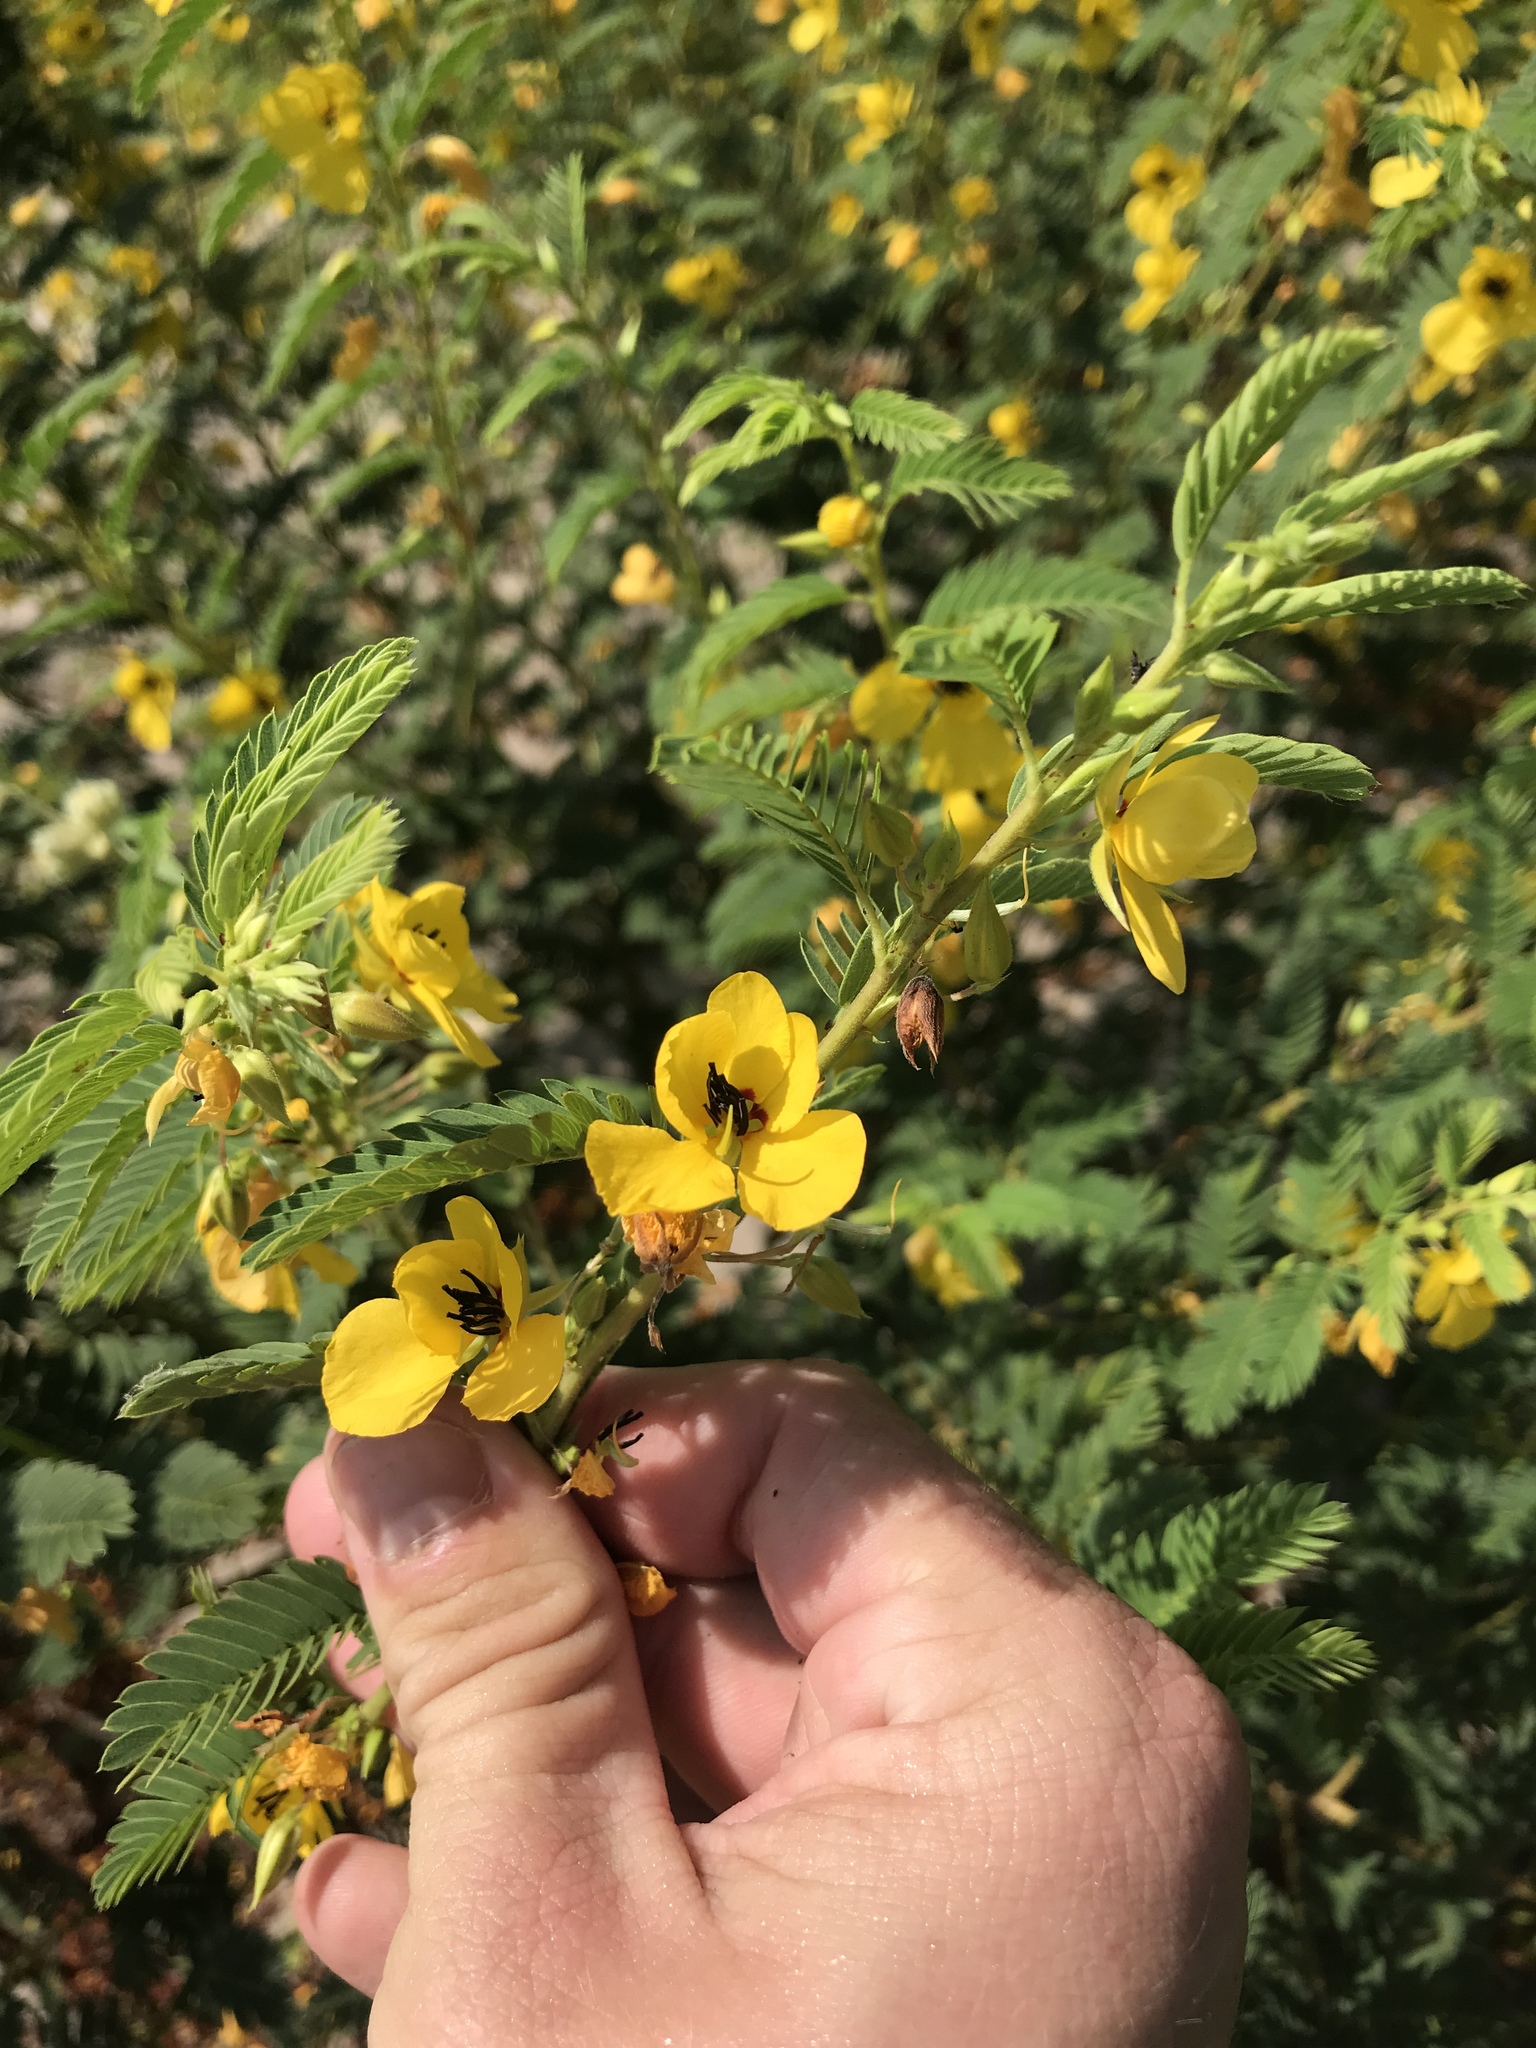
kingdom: Plantae
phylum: Tracheophyta
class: Magnoliopsida
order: Fabales
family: Fabaceae
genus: Chamaecrista
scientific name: Chamaecrista fasciculata
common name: Golden cassia
